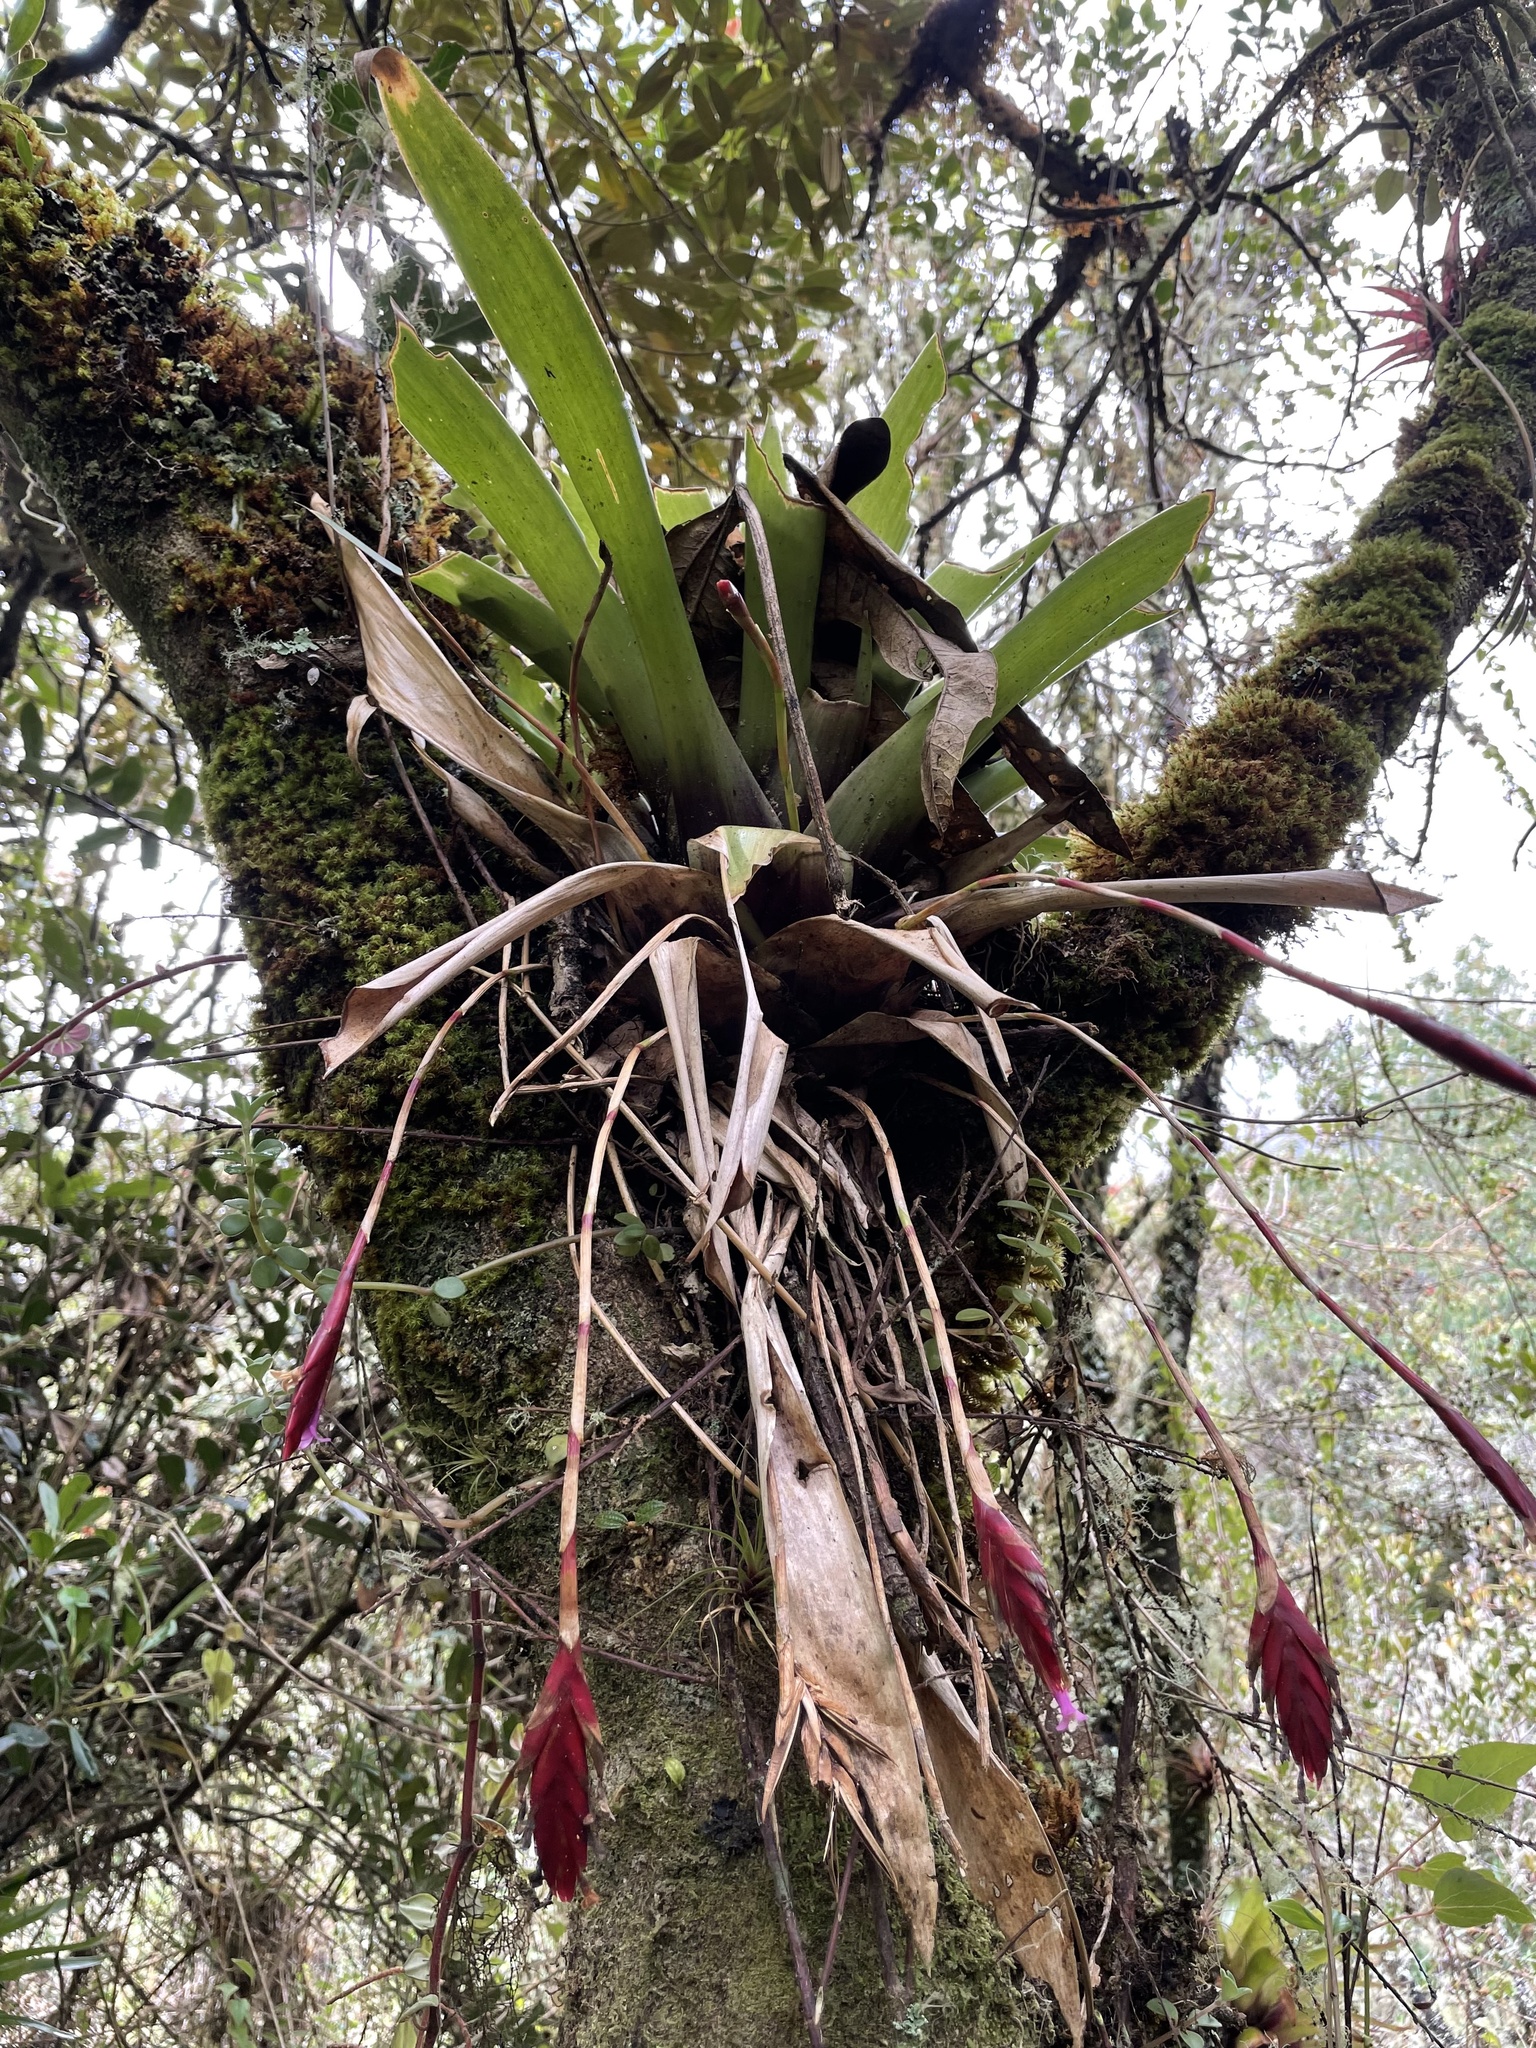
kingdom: Plantae
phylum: Tracheophyta
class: Liliopsida
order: Poales
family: Bromeliaceae
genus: Tillandsia
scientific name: Tillandsia complanata
